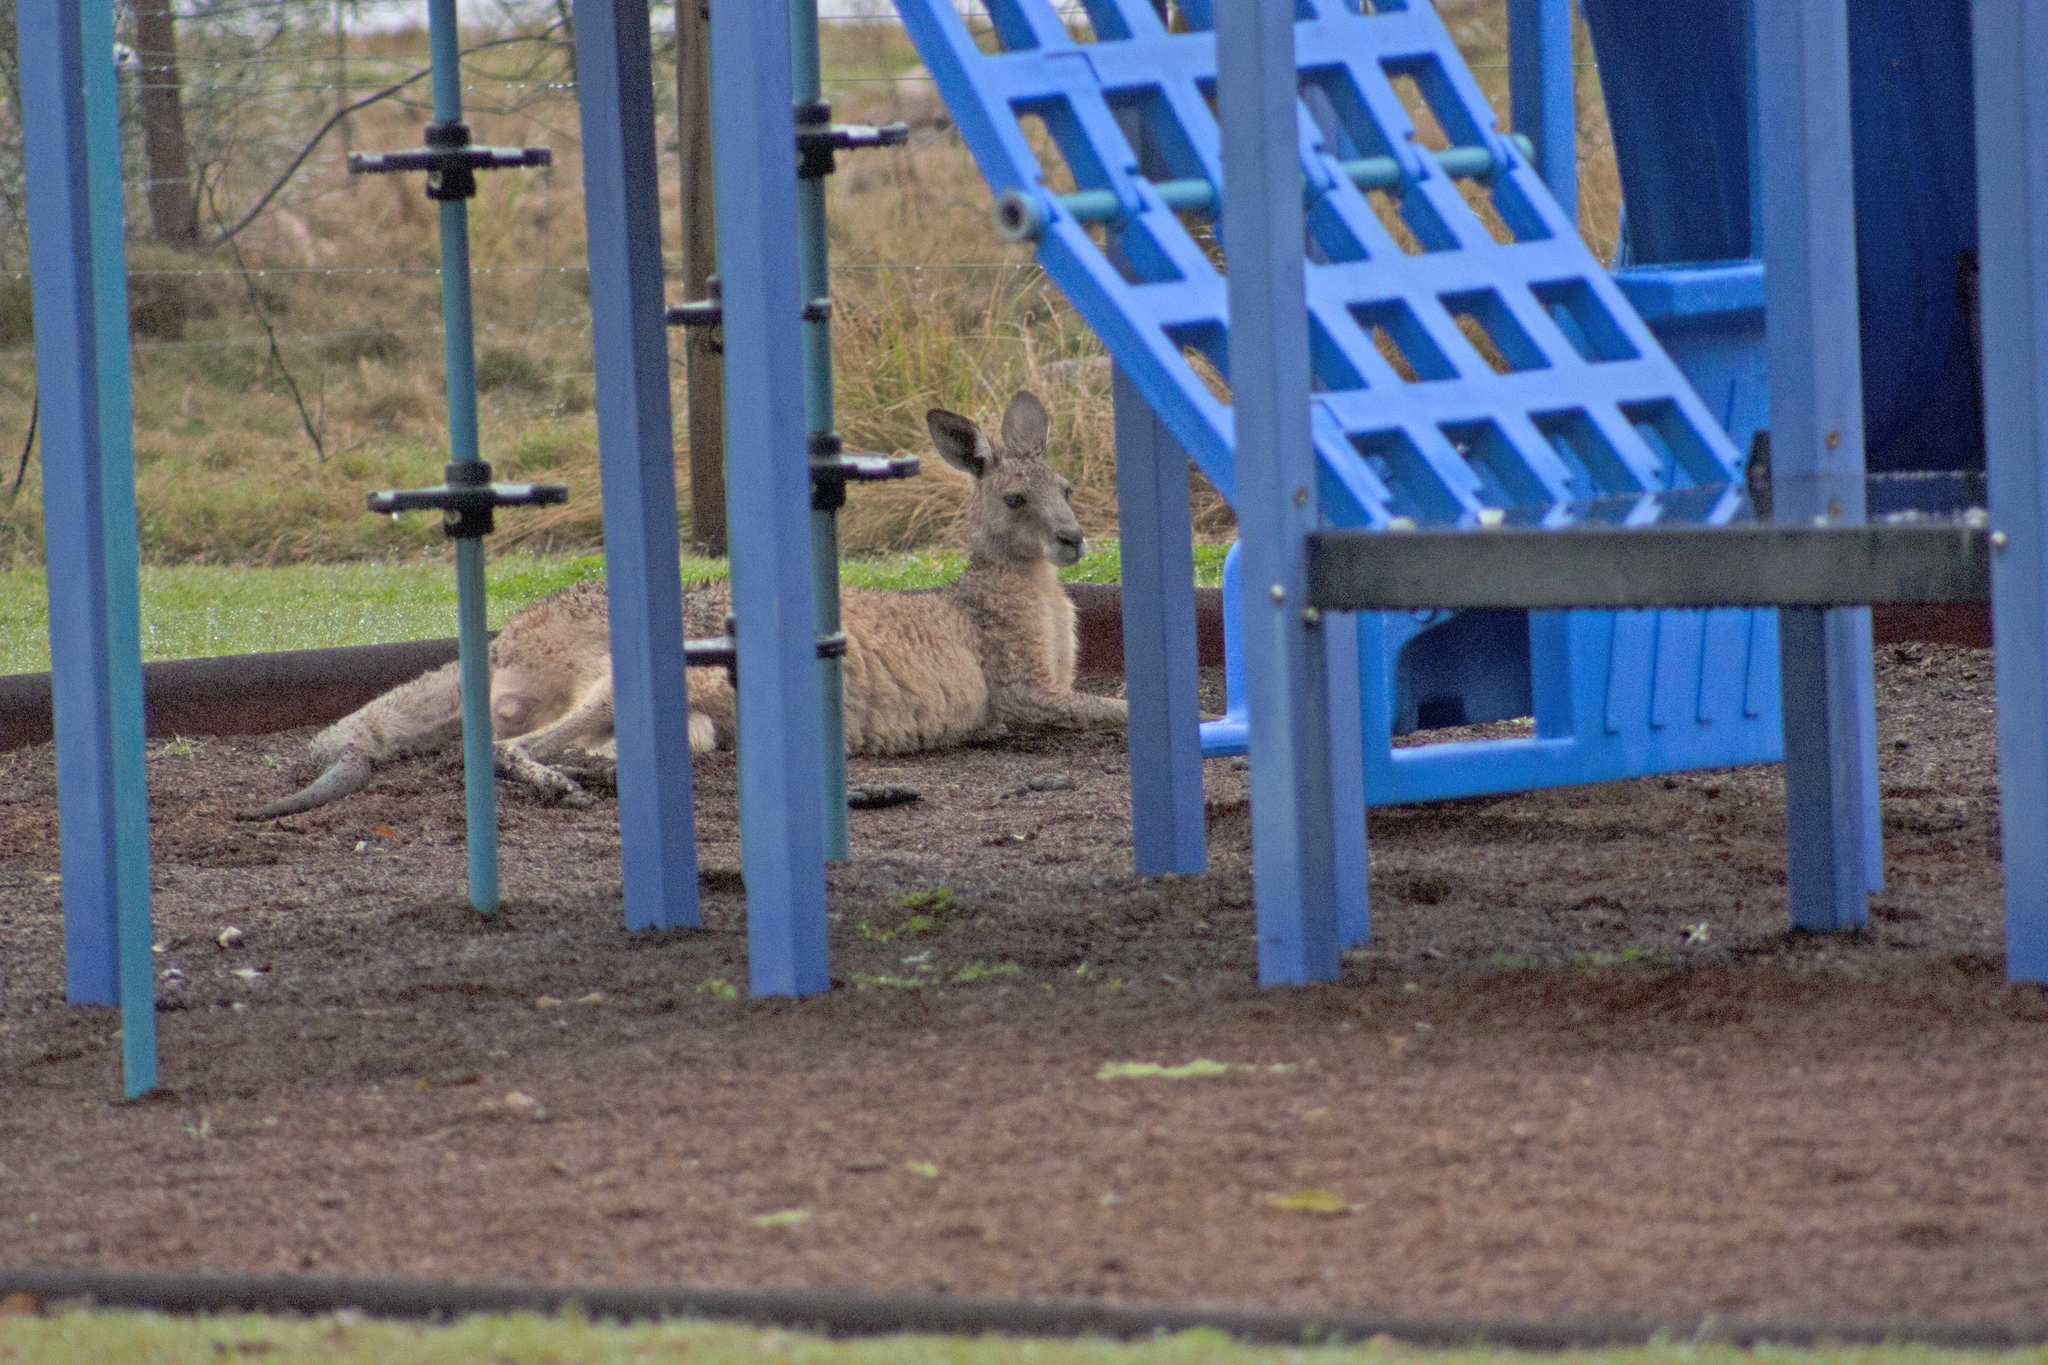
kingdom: Animalia
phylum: Chordata
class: Mammalia
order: Diprotodontia
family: Macropodidae
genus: Macropus
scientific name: Macropus giganteus
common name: Eastern grey kangaroo
